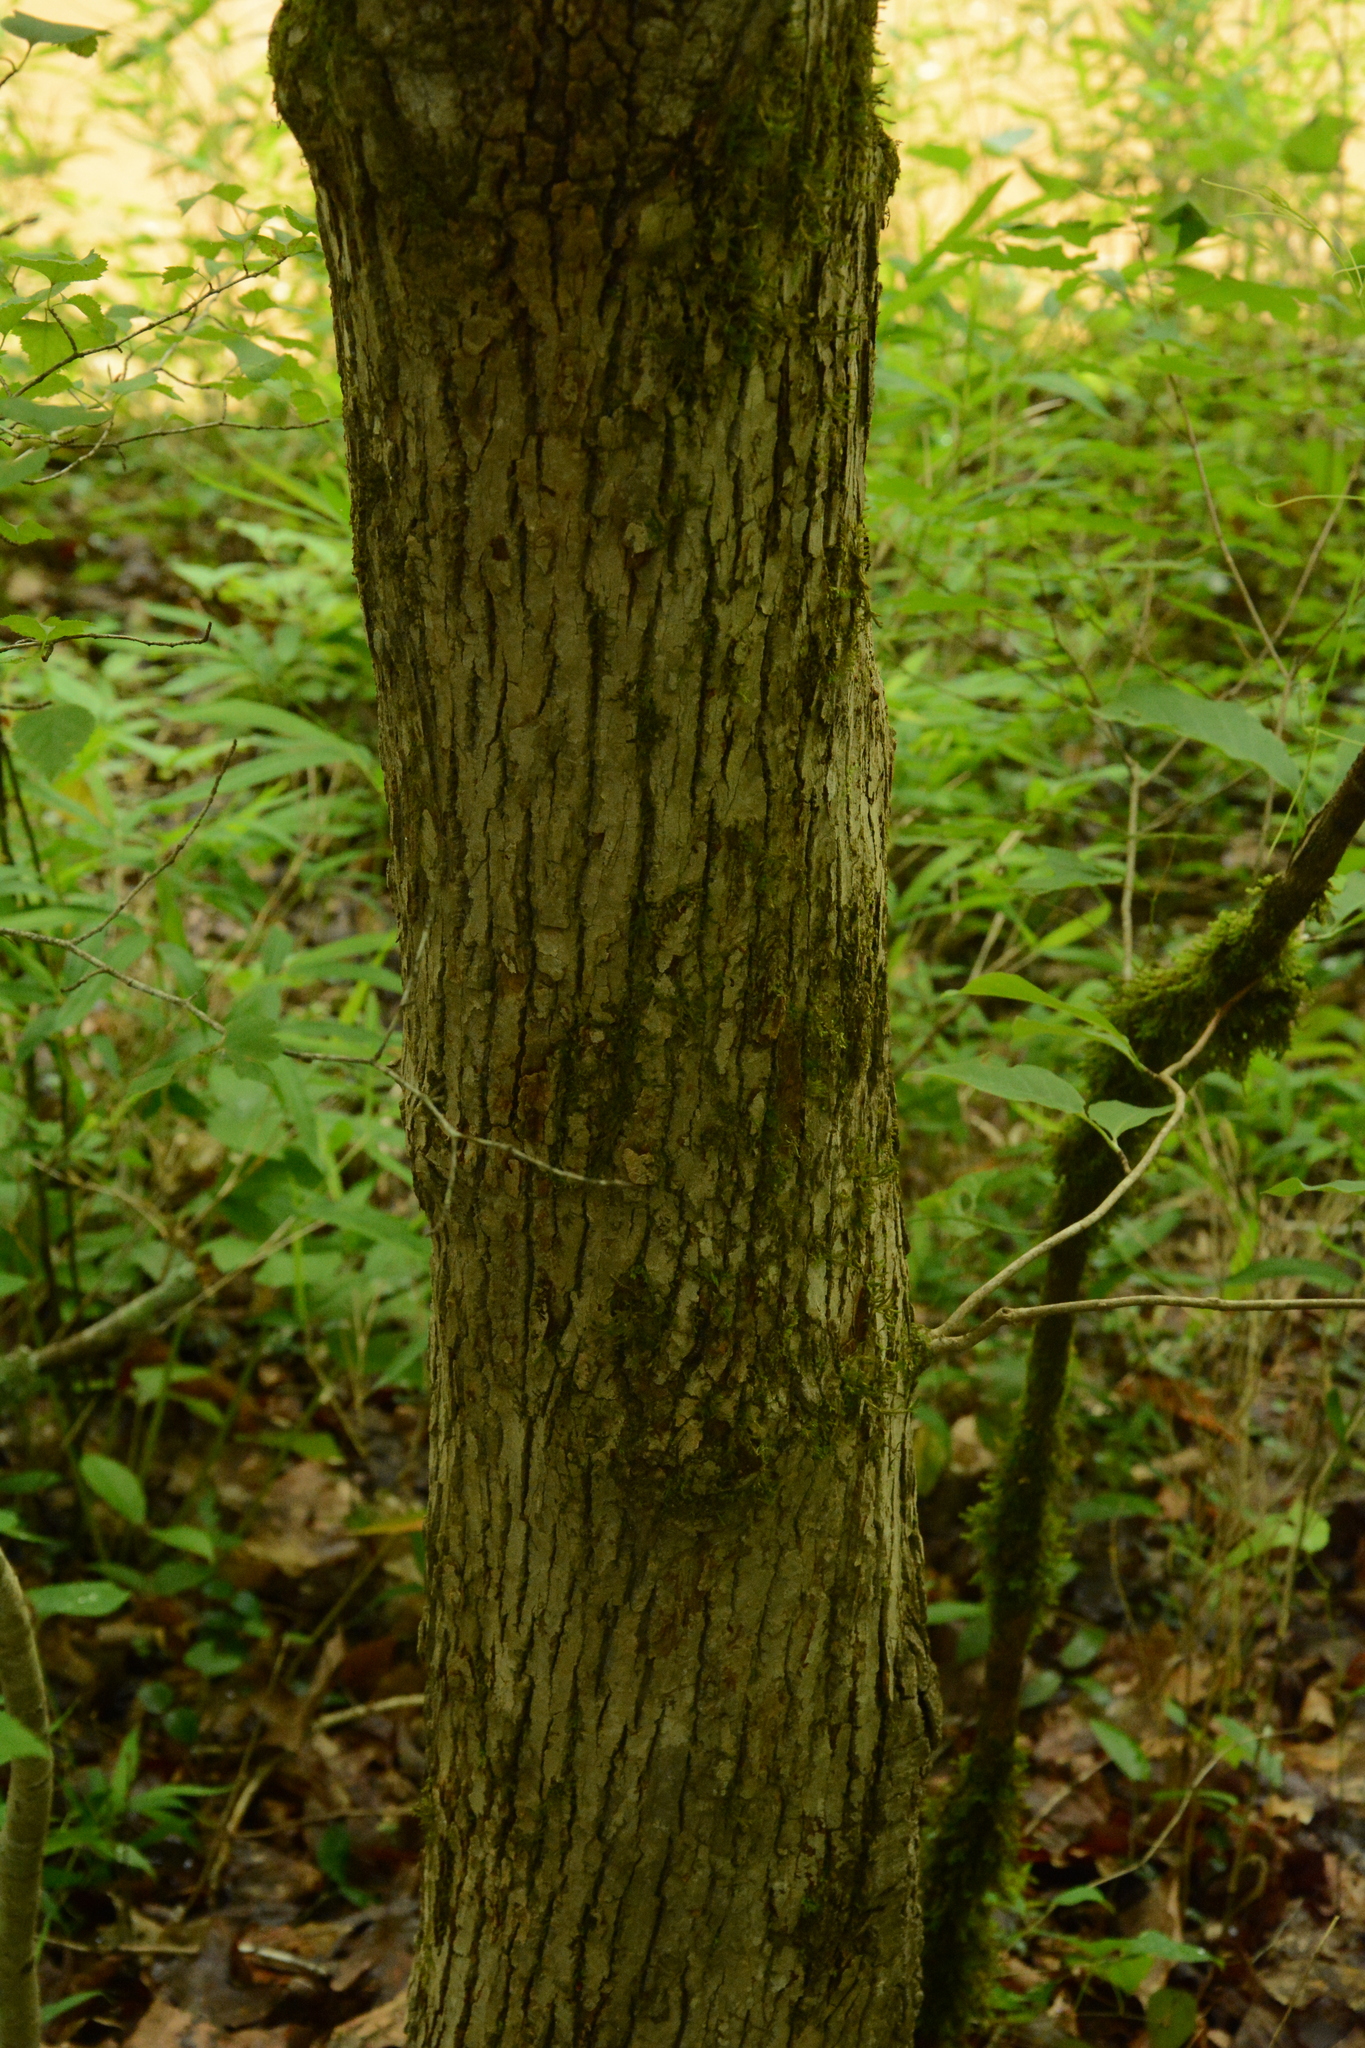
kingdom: Plantae
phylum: Tracheophyta
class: Magnoliopsida
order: Magnoliales
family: Magnoliaceae
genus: Magnolia
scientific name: Magnolia acuminata
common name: Cucumber magnolia
